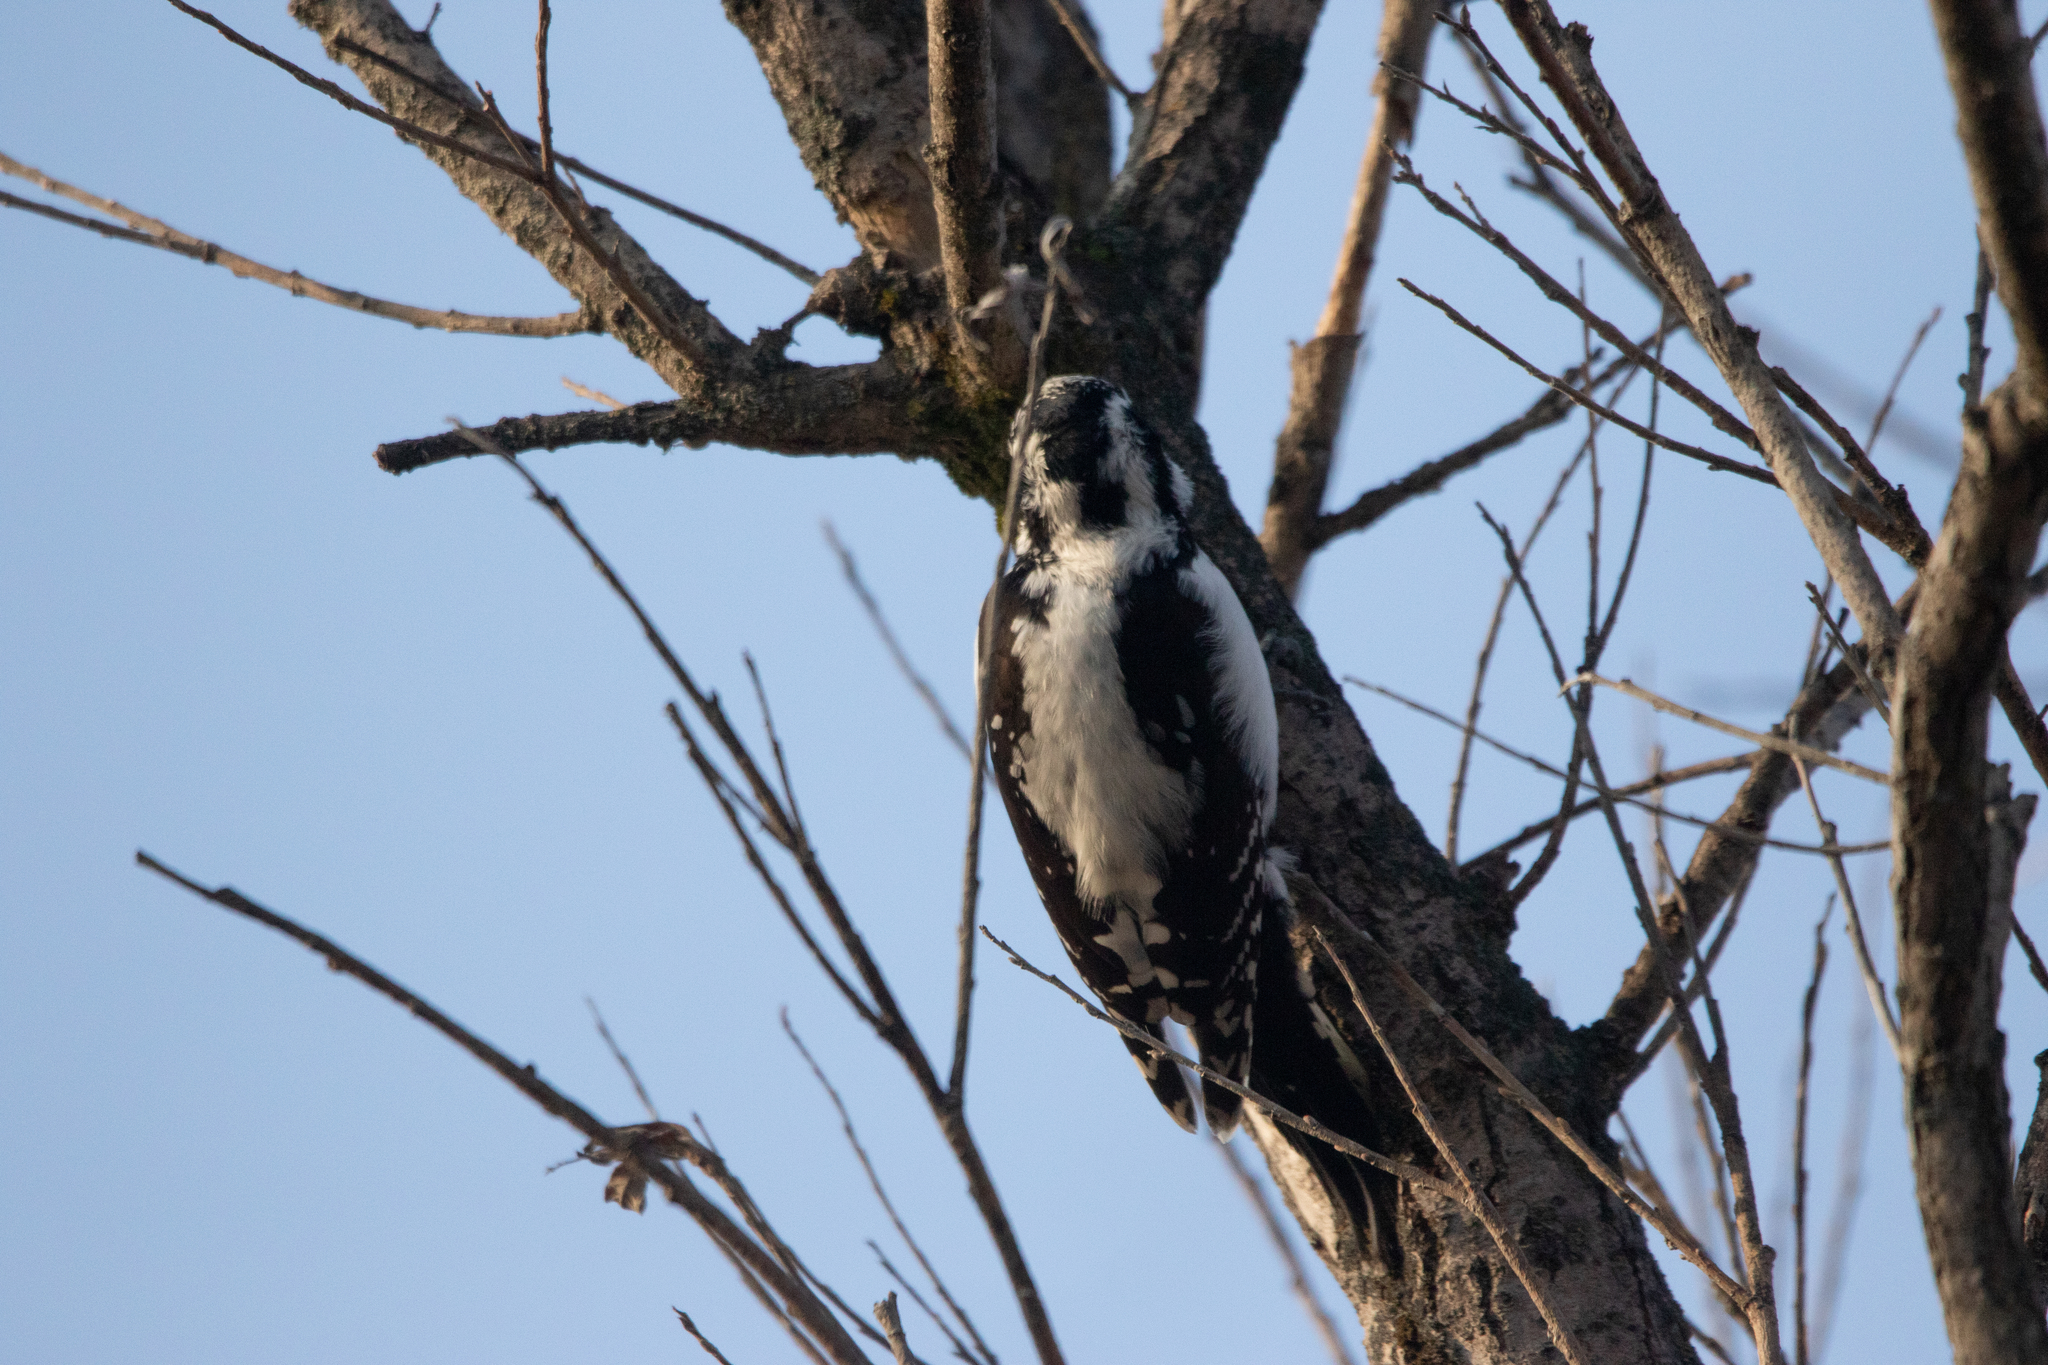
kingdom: Animalia
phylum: Chordata
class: Aves
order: Piciformes
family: Picidae
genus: Picoides
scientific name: Picoides tridactylus
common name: Eurasian three-toed woodpecker
